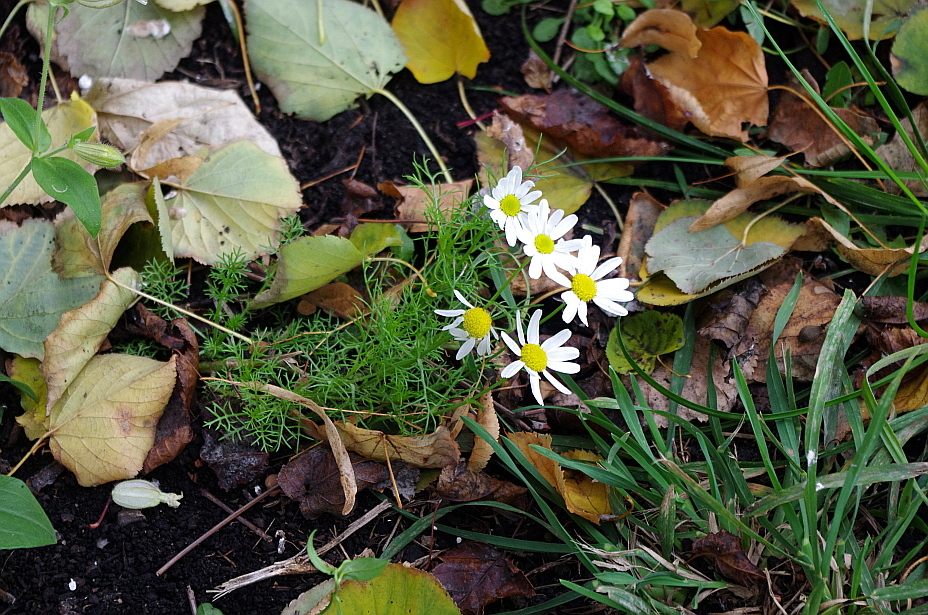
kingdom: Plantae
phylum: Tracheophyta
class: Magnoliopsida
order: Asterales
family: Asteraceae
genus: Tripleurospermum
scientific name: Tripleurospermum inodorum
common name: Scentless mayweed
